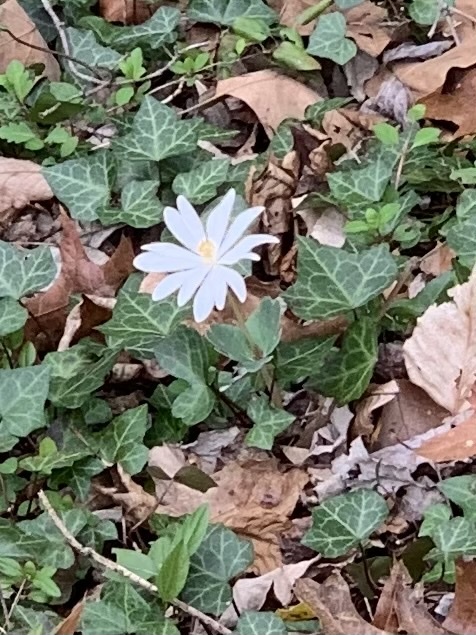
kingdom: Plantae
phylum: Tracheophyta
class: Magnoliopsida
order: Ranunculales
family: Papaveraceae
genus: Sanguinaria
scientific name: Sanguinaria canadensis
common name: Bloodroot
